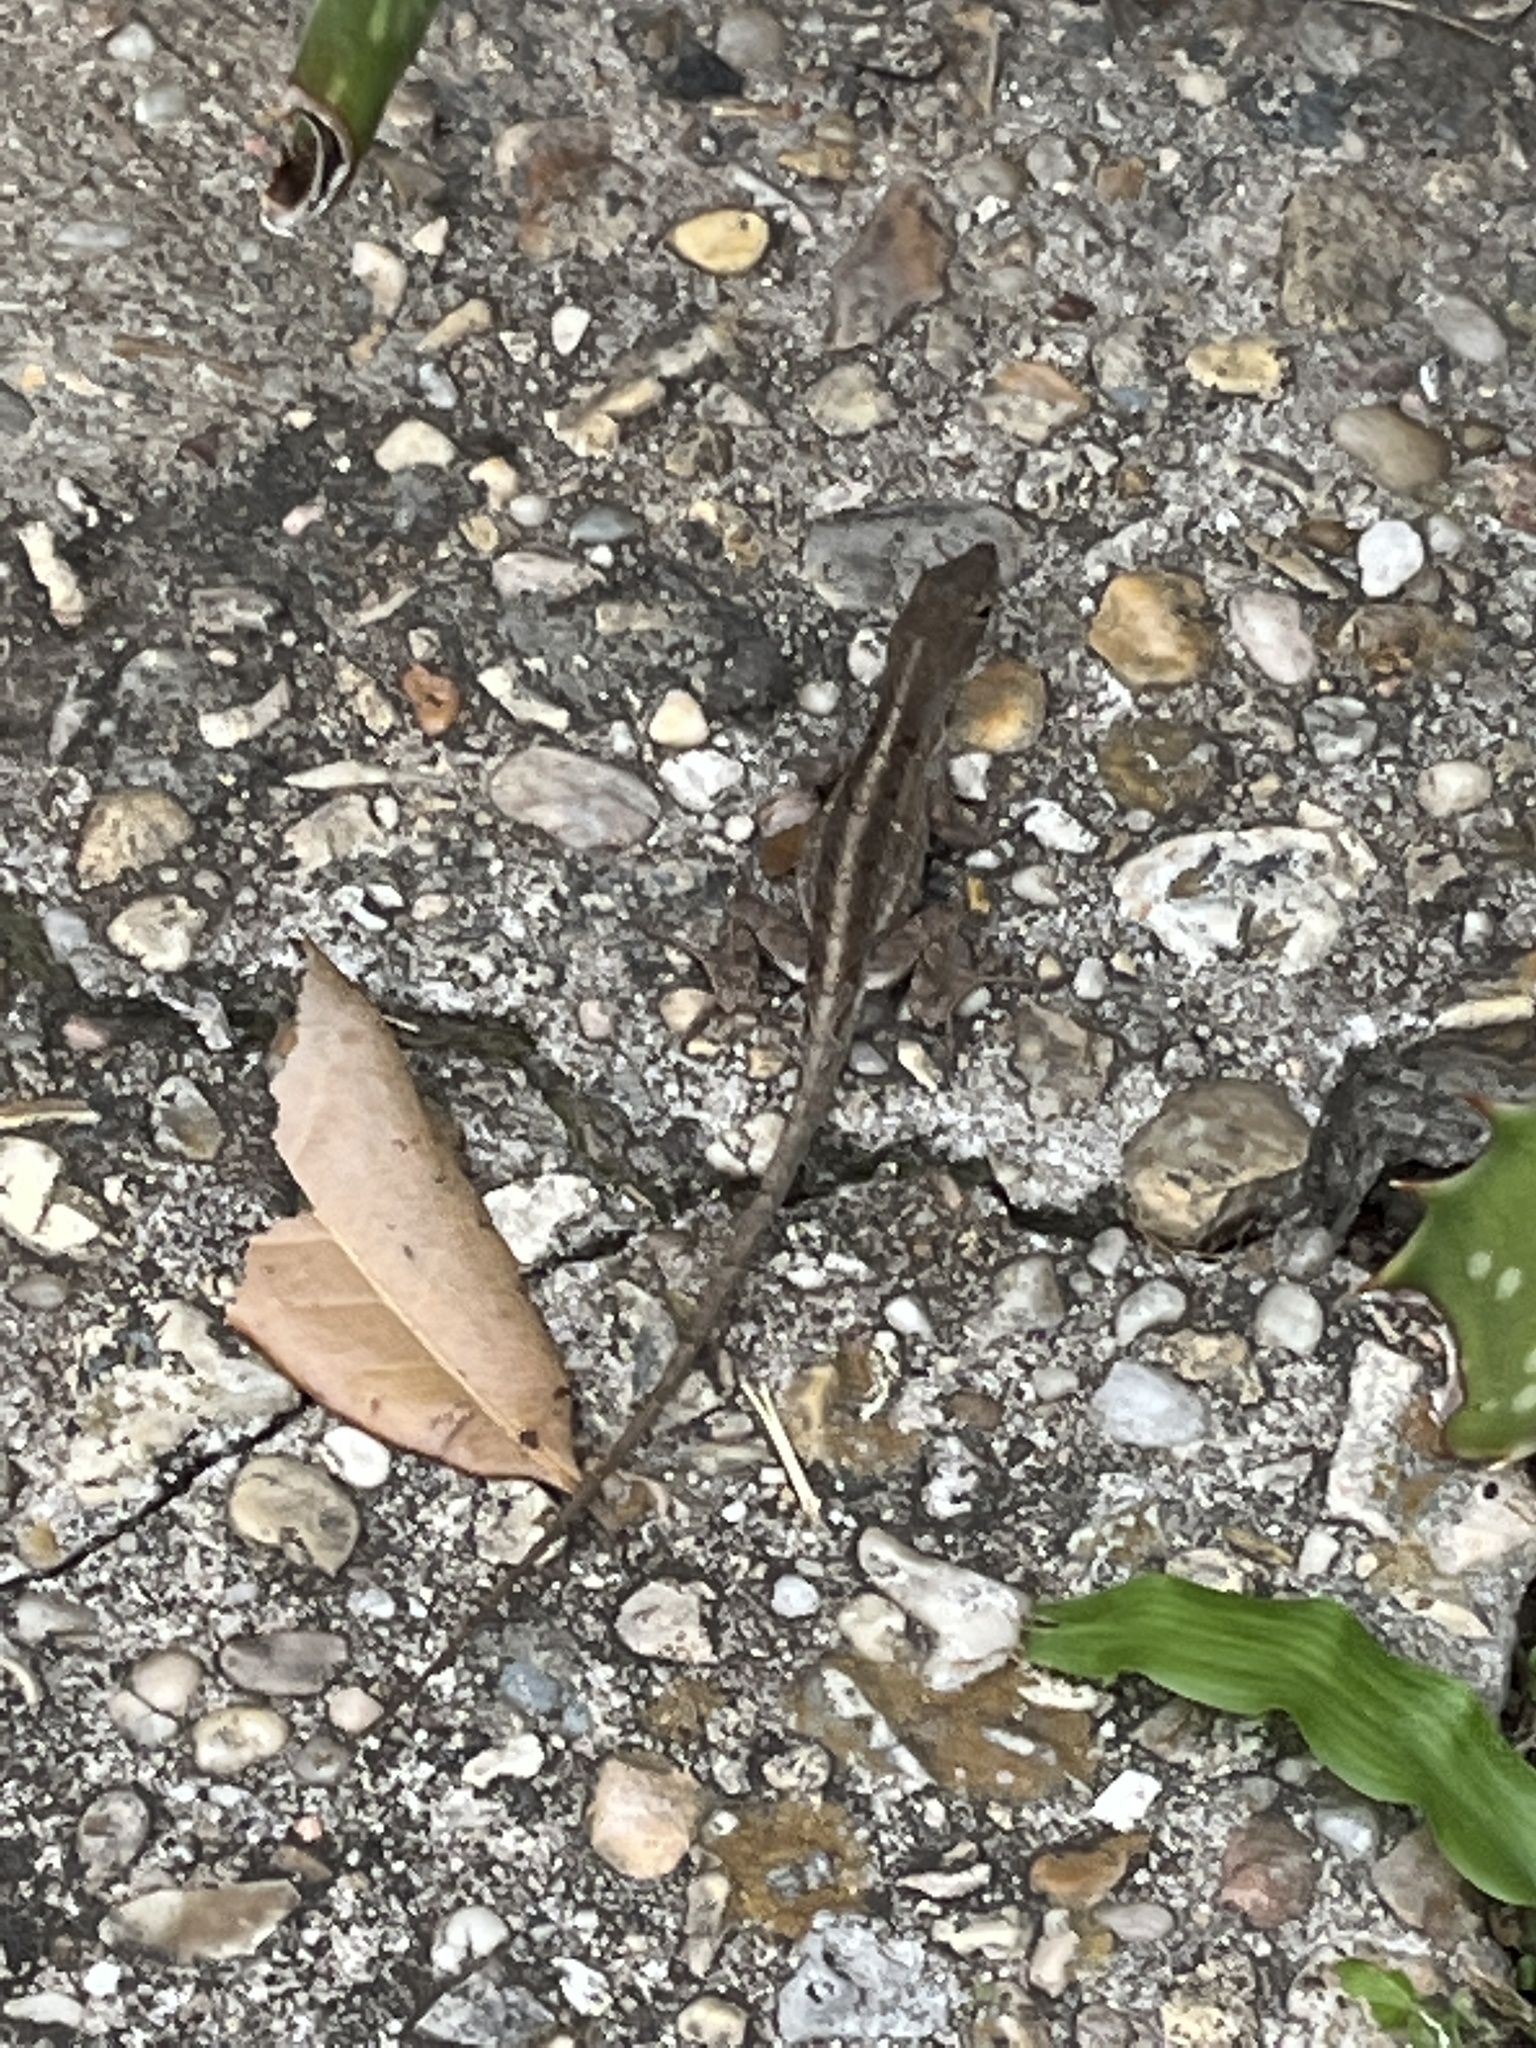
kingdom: Animalia
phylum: Chordata
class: Squamata
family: Dactyloidae
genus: Anolis
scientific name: Anolis sagrei
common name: Brown anole
